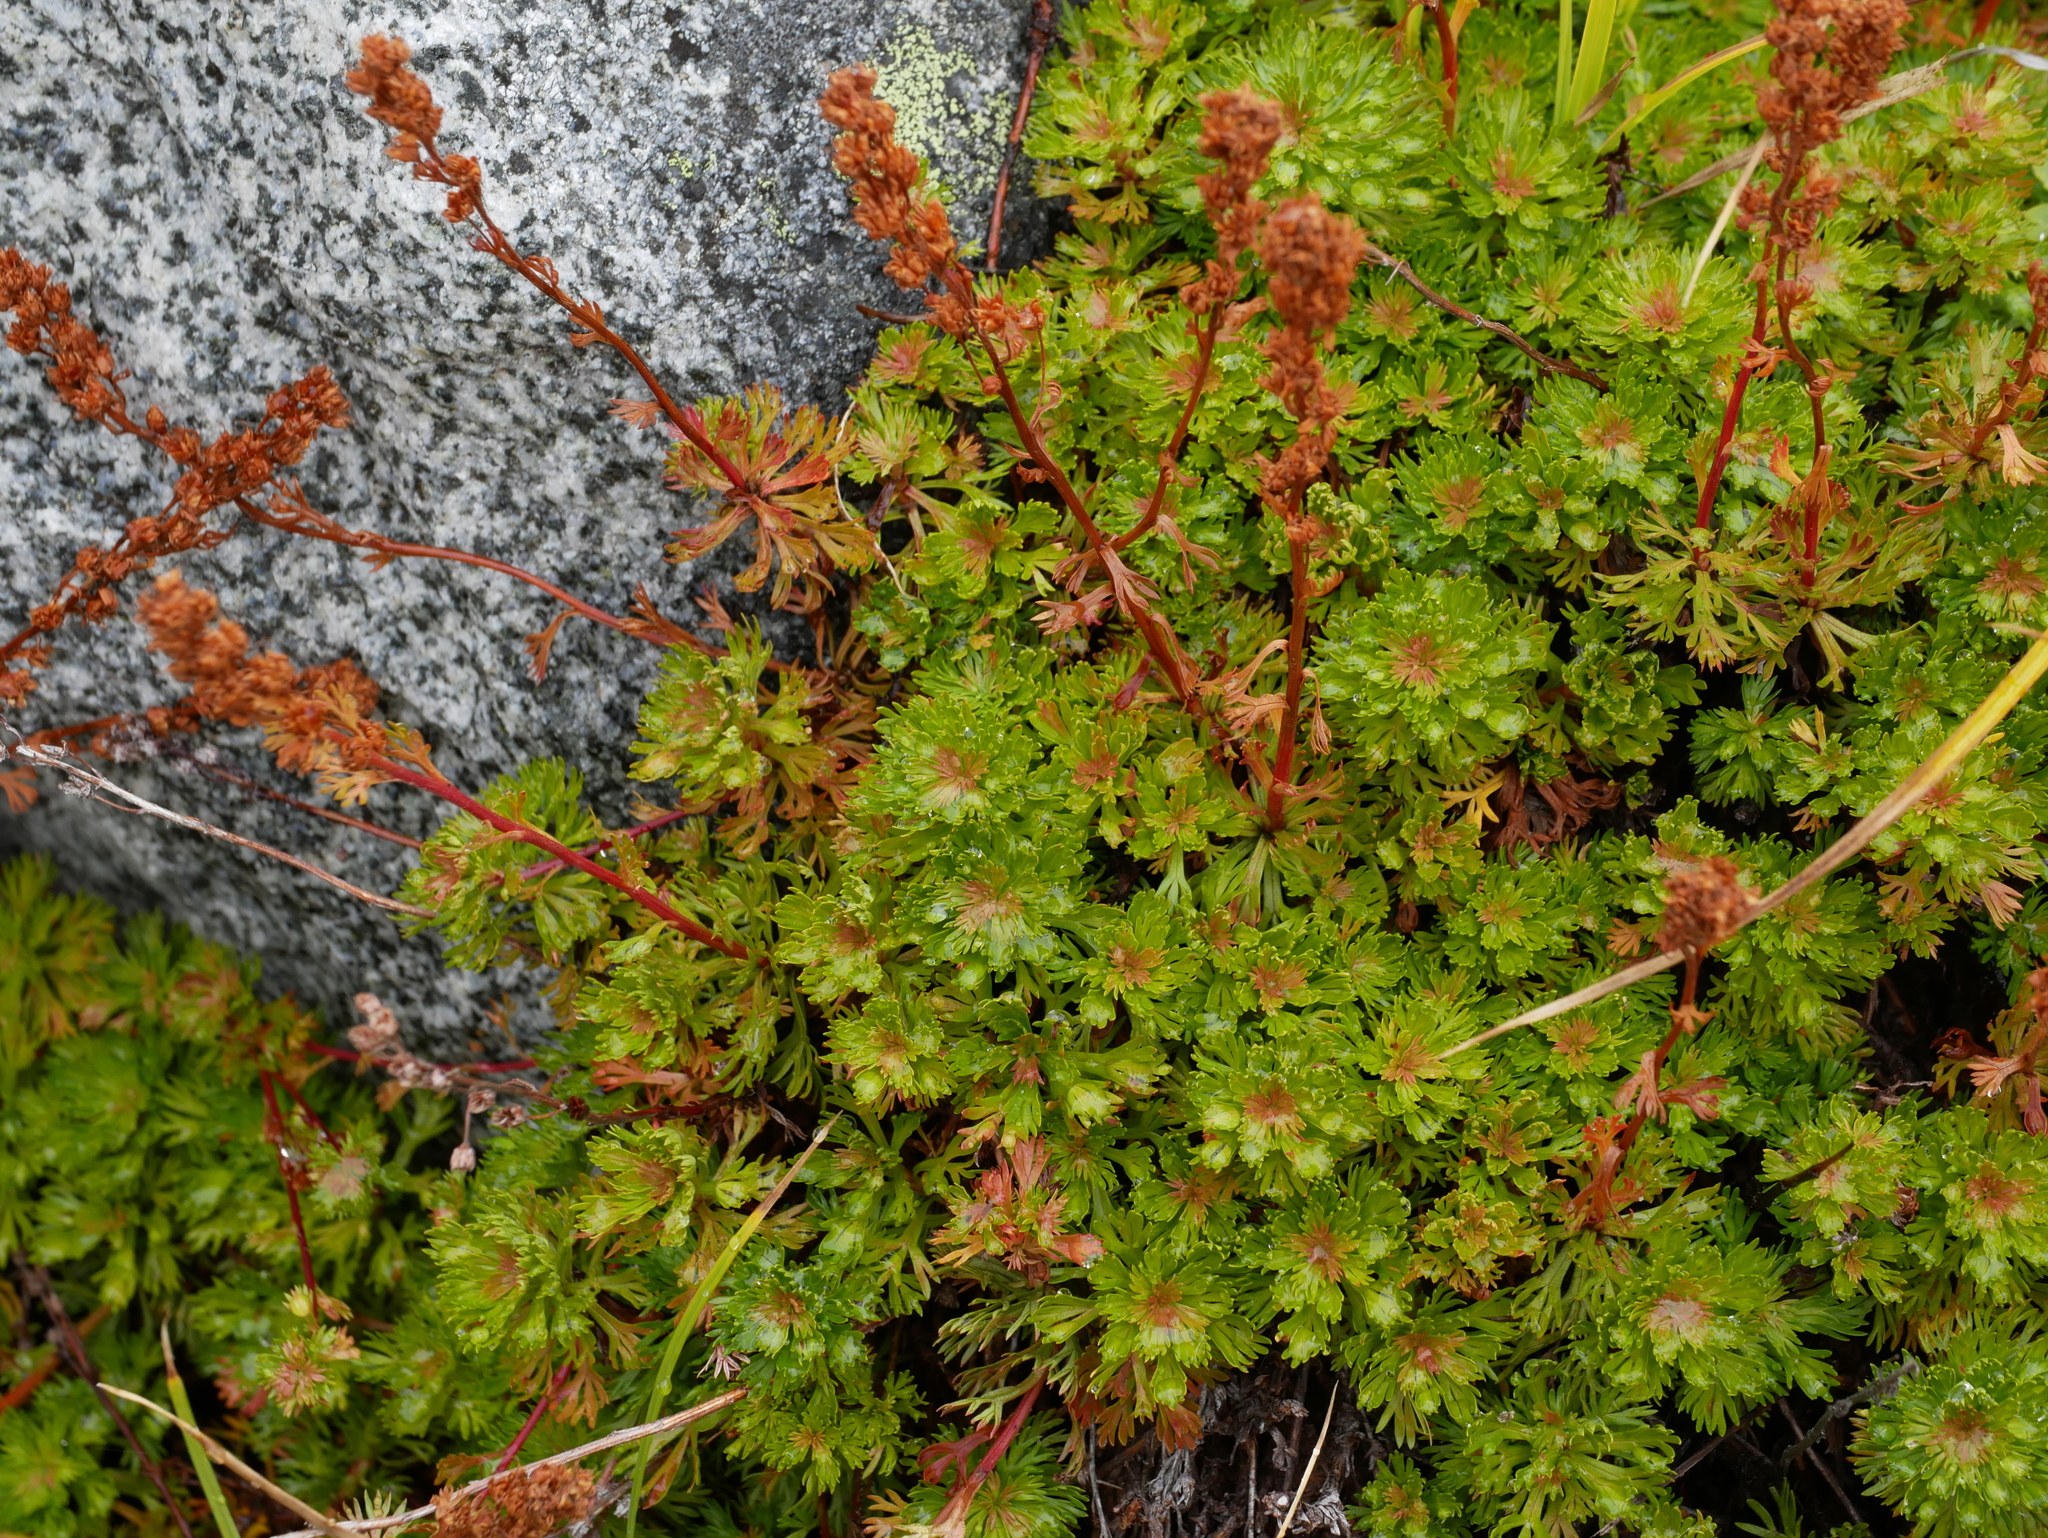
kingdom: Plantae
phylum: Tracheophyta
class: Magnoliopsida
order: Rosales
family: Rosaceae
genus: Luetkea
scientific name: Luetkea pectinata
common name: Partridgefoot
